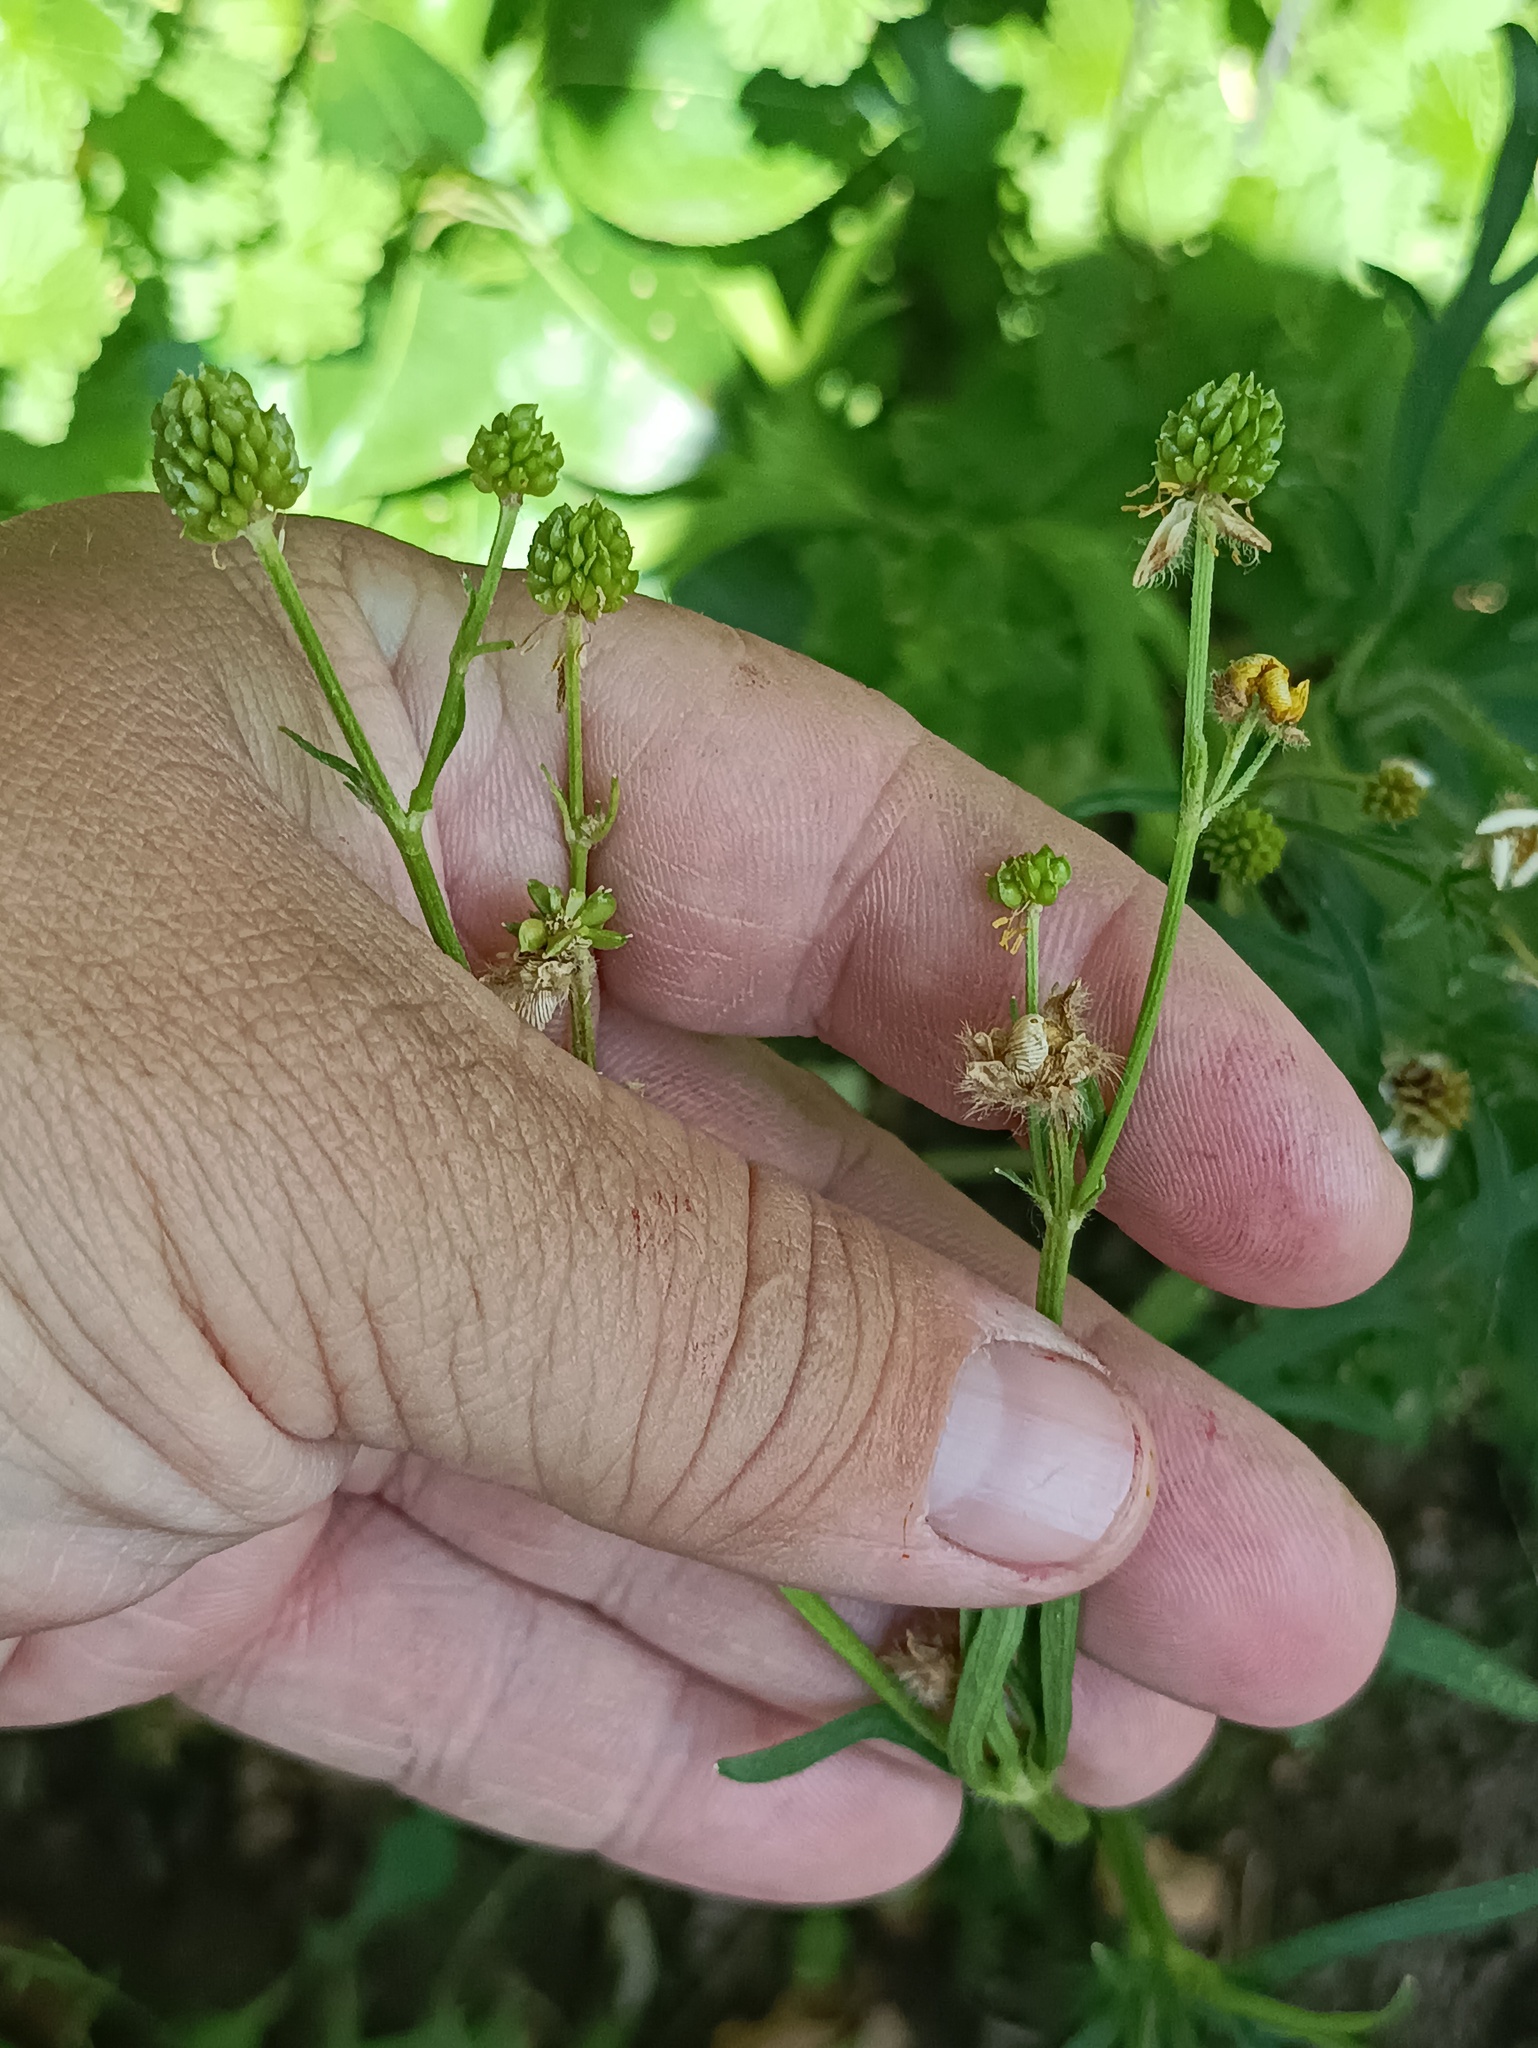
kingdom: Plantae
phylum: Tracheophyta
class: Magnoliopsida
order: Ranunculales
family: Ranunculaceae
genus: Ranunculus
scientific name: Ranunculus polyanthemos
